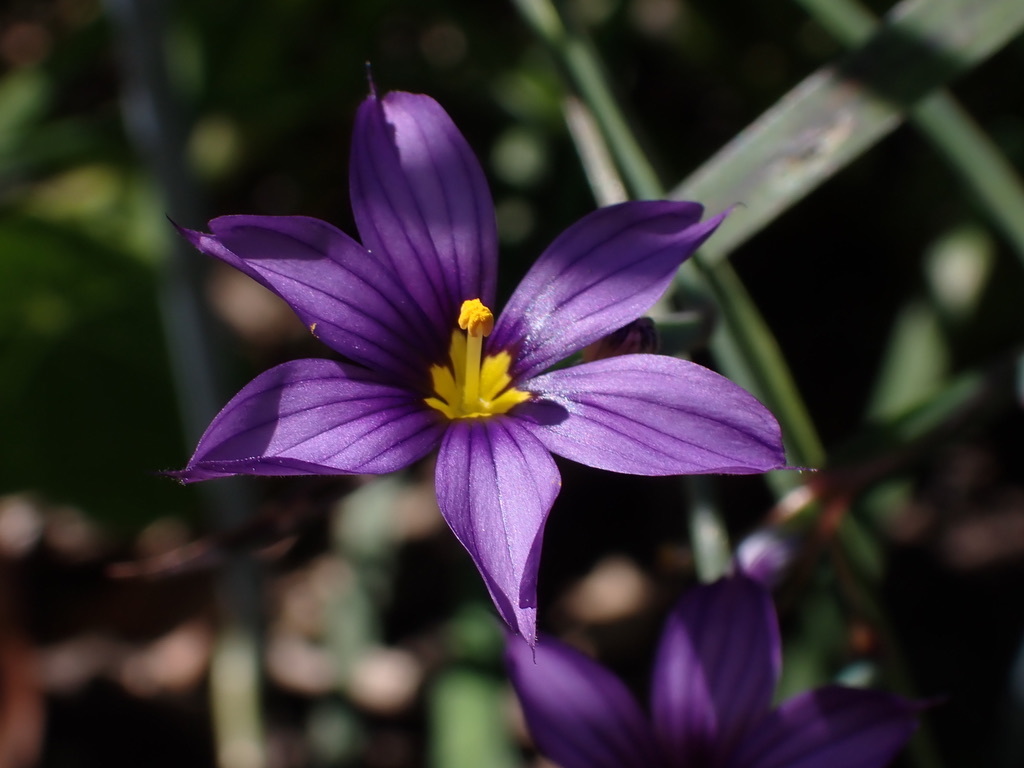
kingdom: Plantae
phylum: Tracheophyta
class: Liliopsida
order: Asparagales
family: Iridaceae
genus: Sisyrinchium
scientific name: Sisyrinchium bellum
